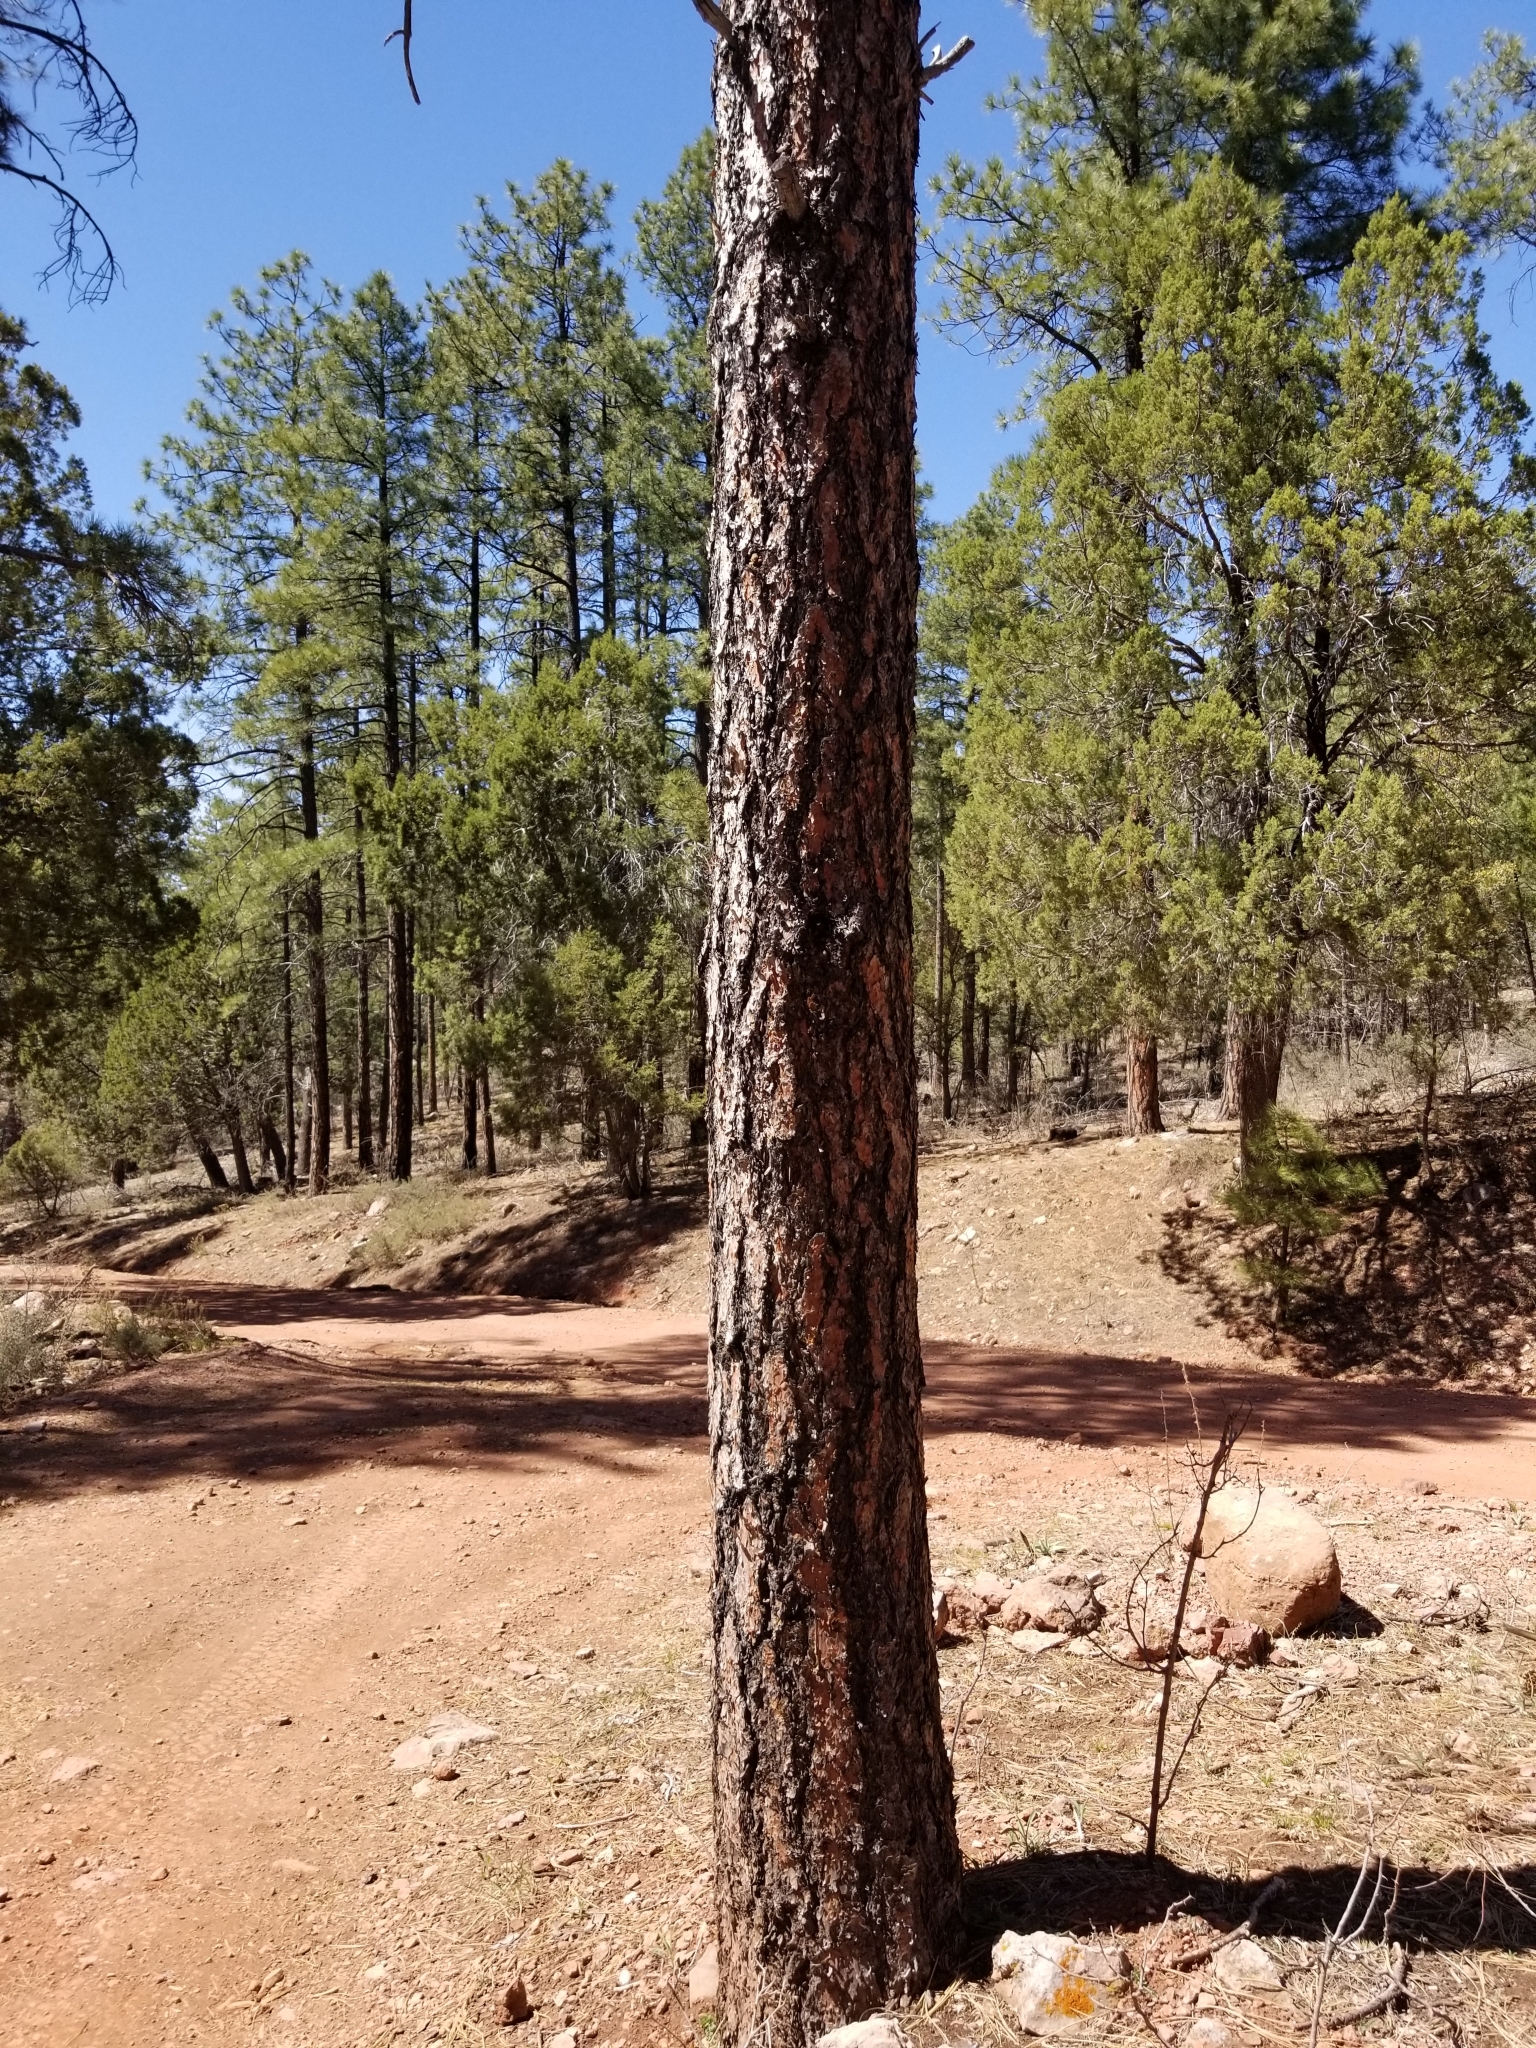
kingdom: Plantae
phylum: Tracheophyta
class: Pinopsida
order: Pinales
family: Pinaceae
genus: Pinus
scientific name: Pinus ponderosa
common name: Western yellow-pine
